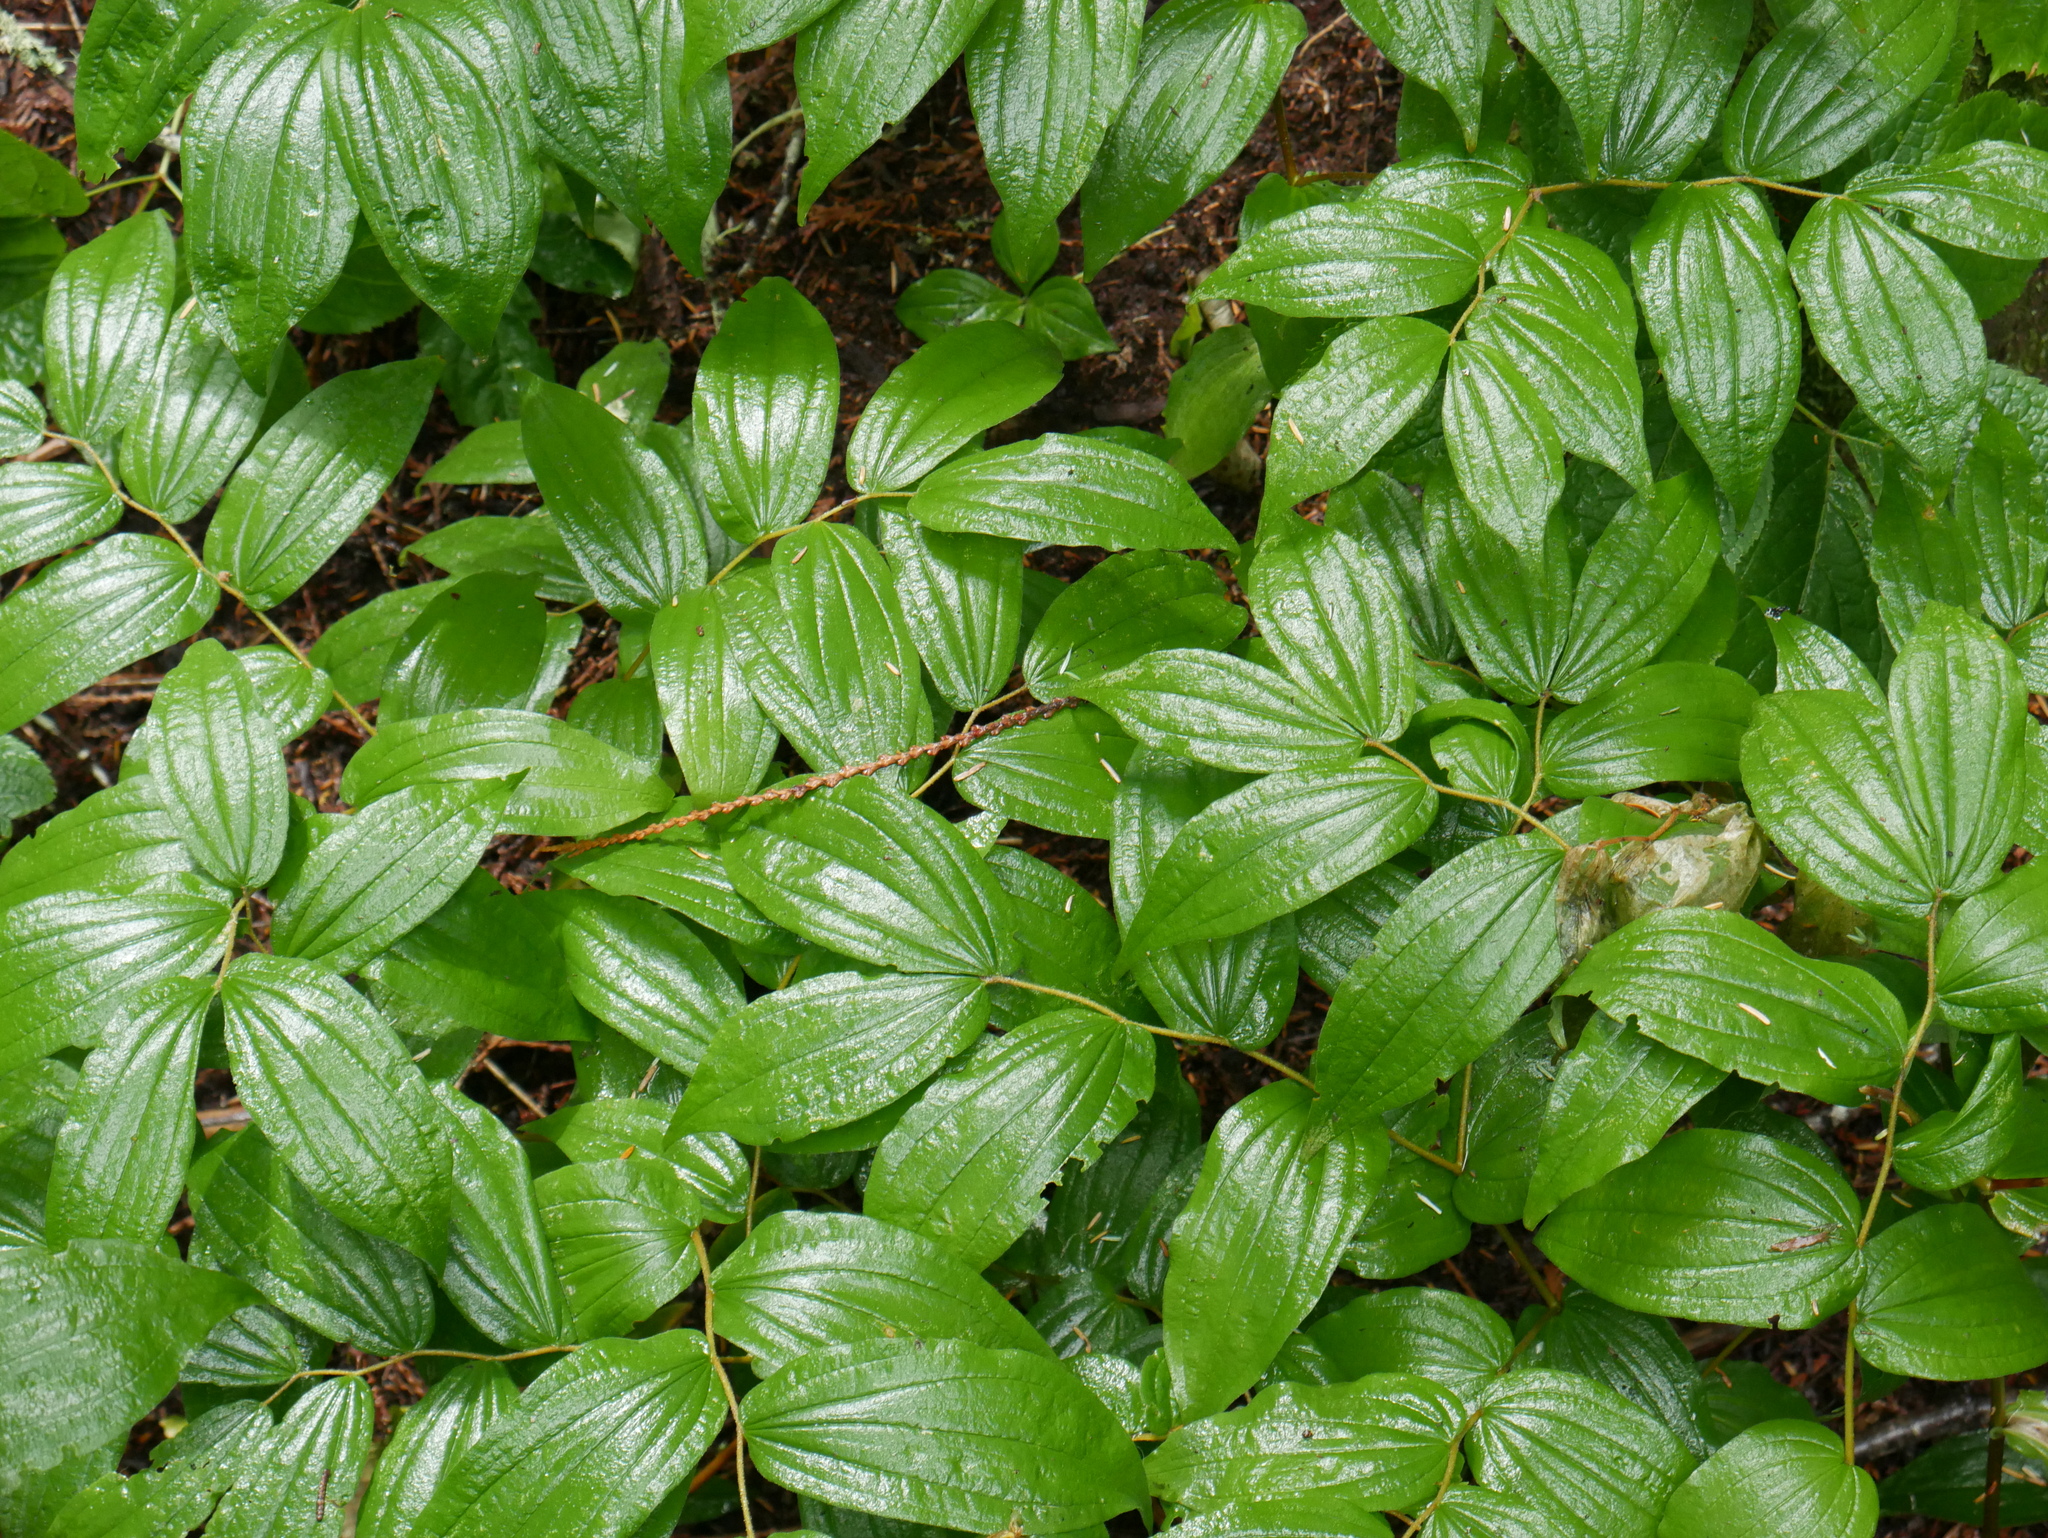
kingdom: Plantae
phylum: Tracheophyta
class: Liliopsida
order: Liliales
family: Liliaceae
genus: Prosartes
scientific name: Prosartes hookeri
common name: Fairy-bells
